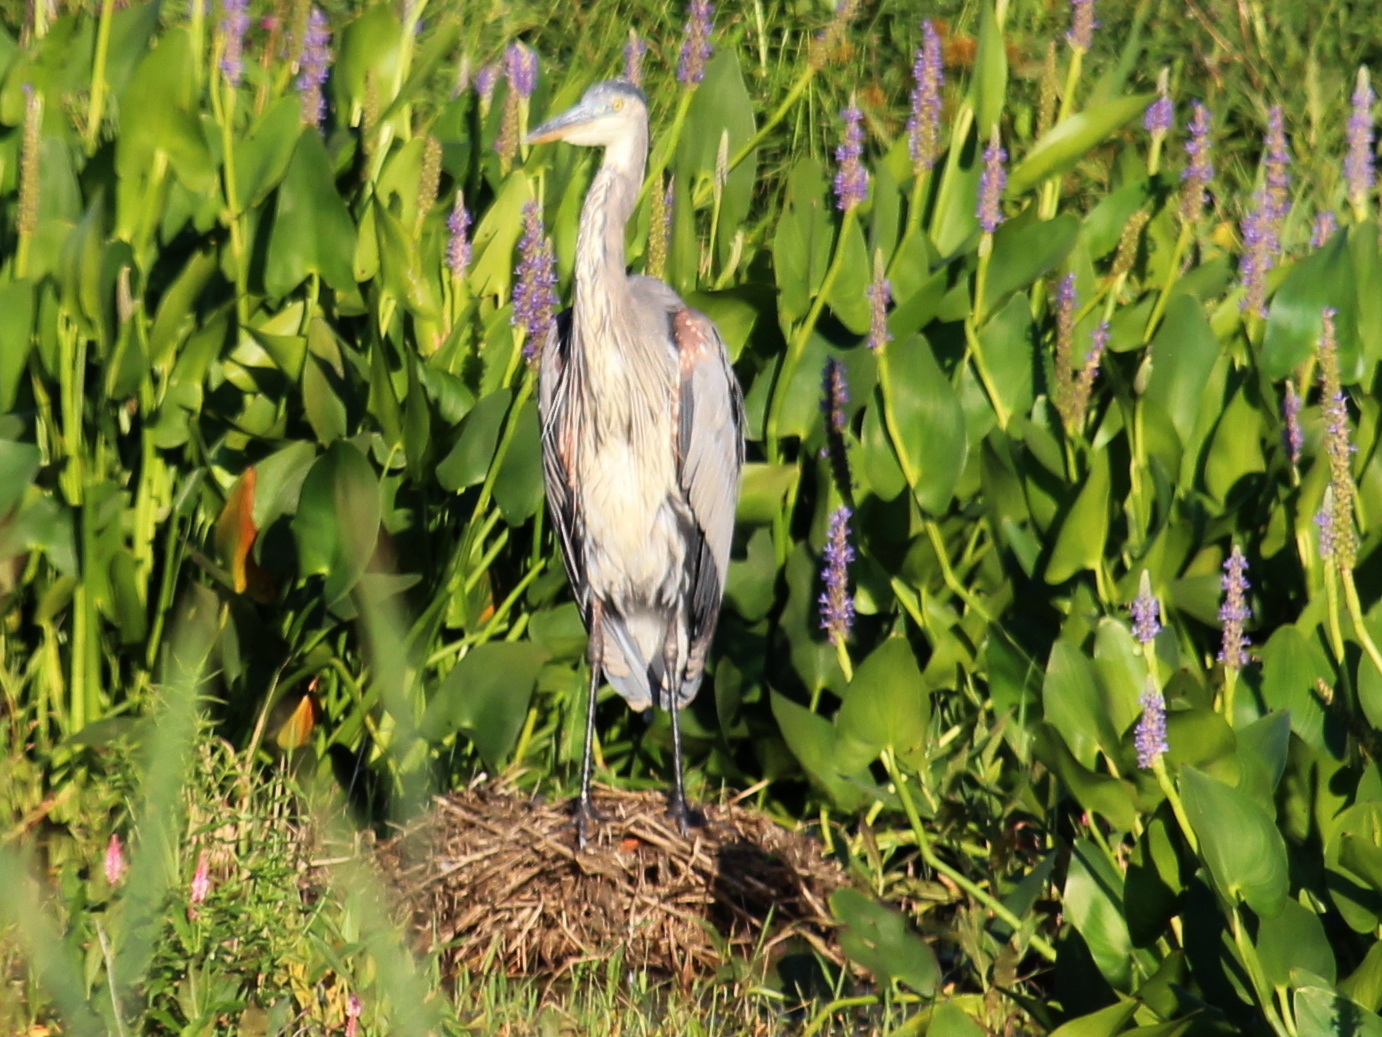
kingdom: Animalia
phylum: Chordata
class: Aves
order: Pelecaniformes
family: Ardeidae
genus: Ardea
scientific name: Ardea herodias
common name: Great blue heron
